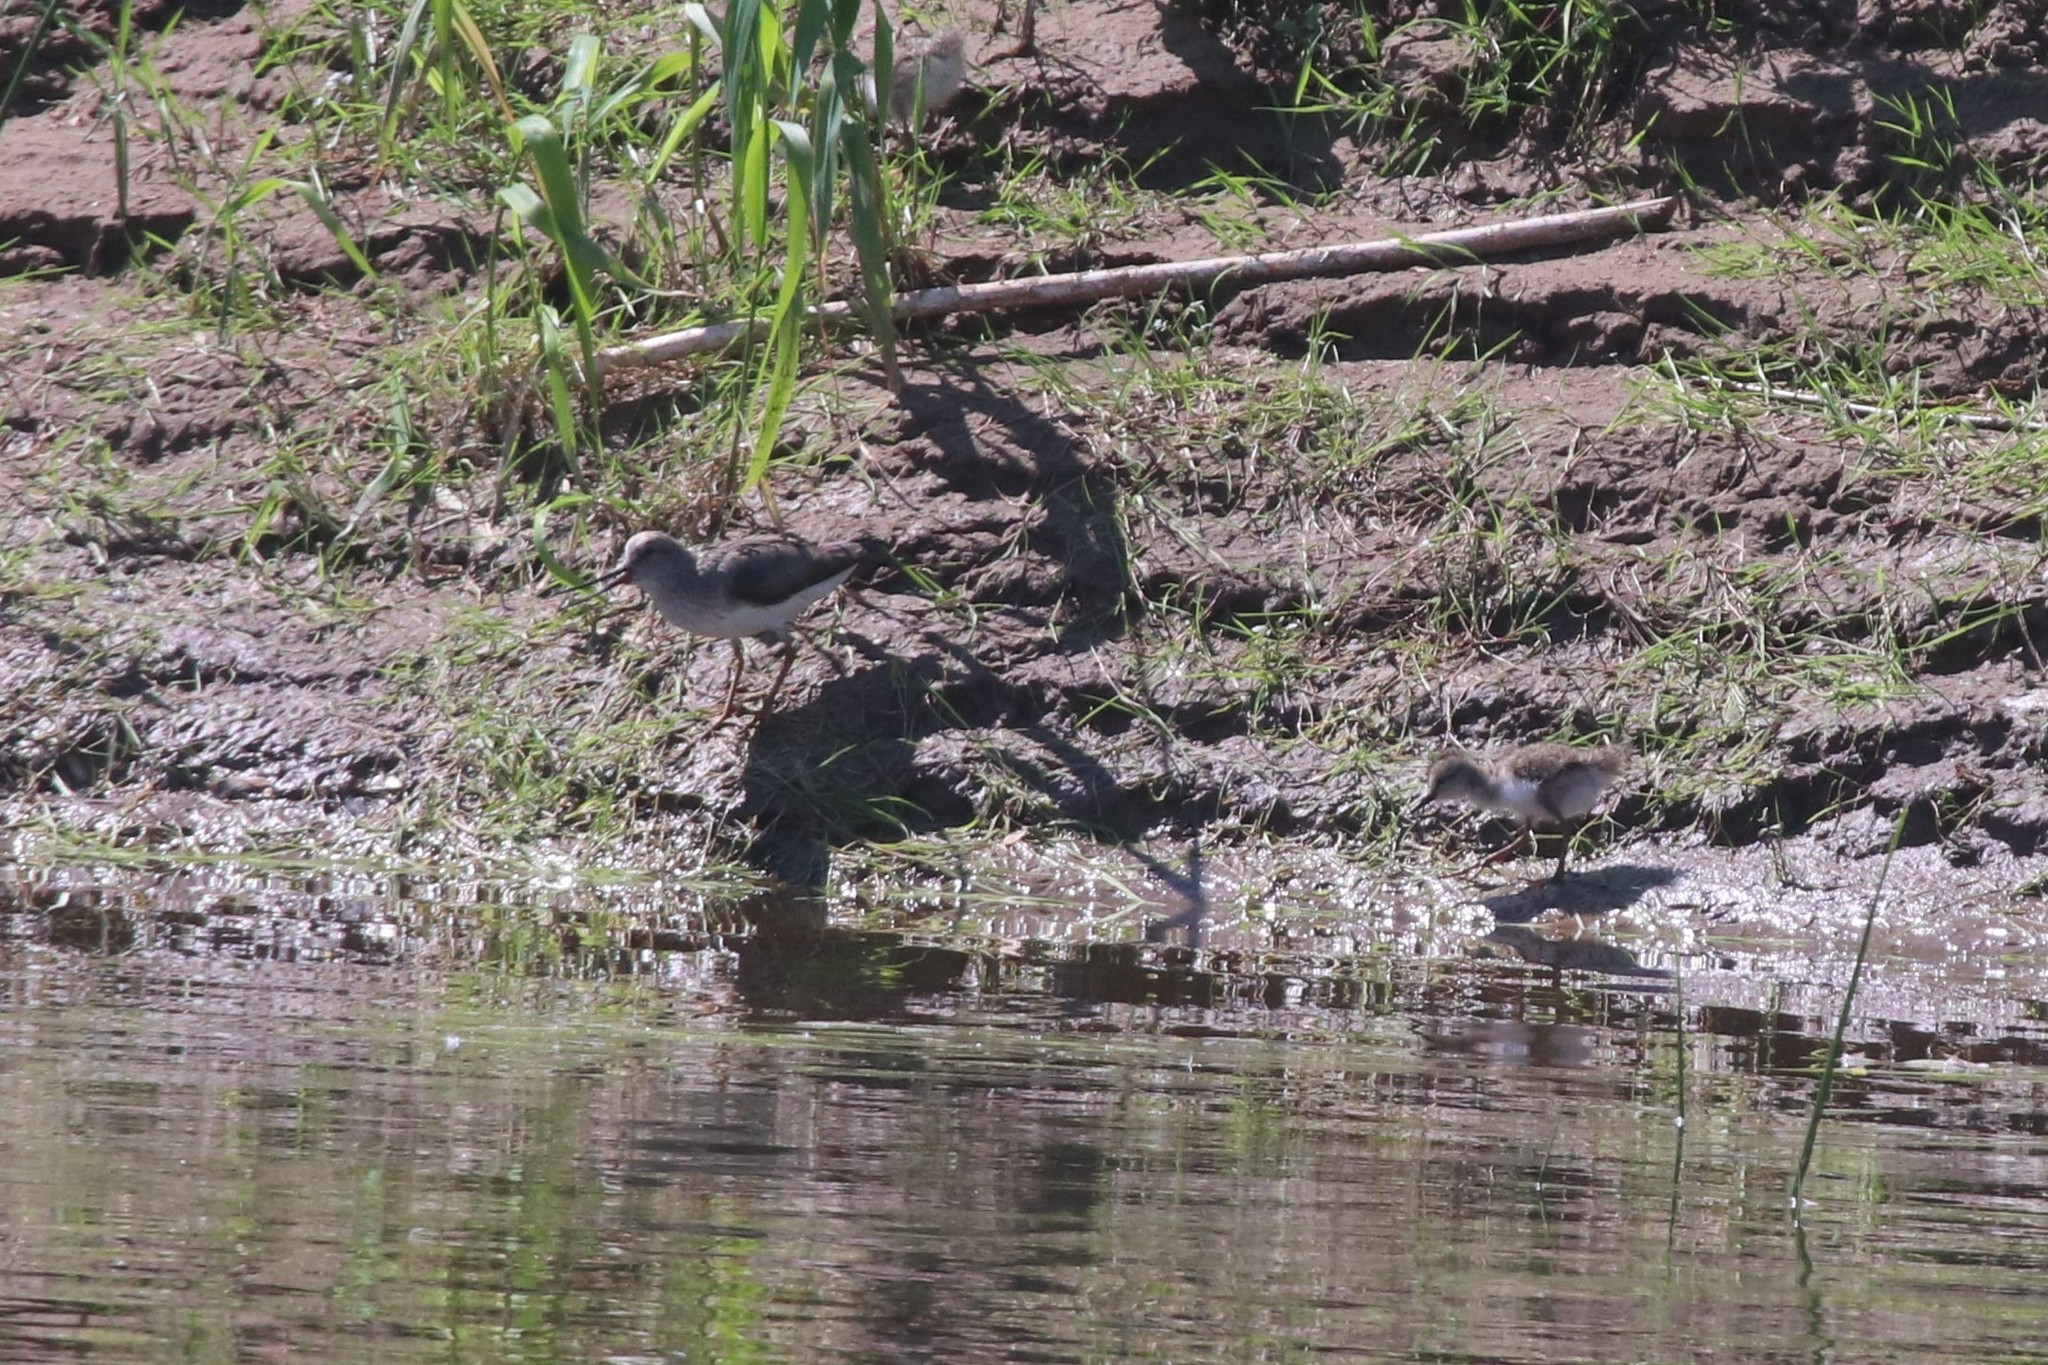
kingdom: Animalia
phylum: Chordata
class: Aves
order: Charadriiformes
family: Scolopacidae
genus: Xenus
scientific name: Xenus cinereus
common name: Terek sandpiper
